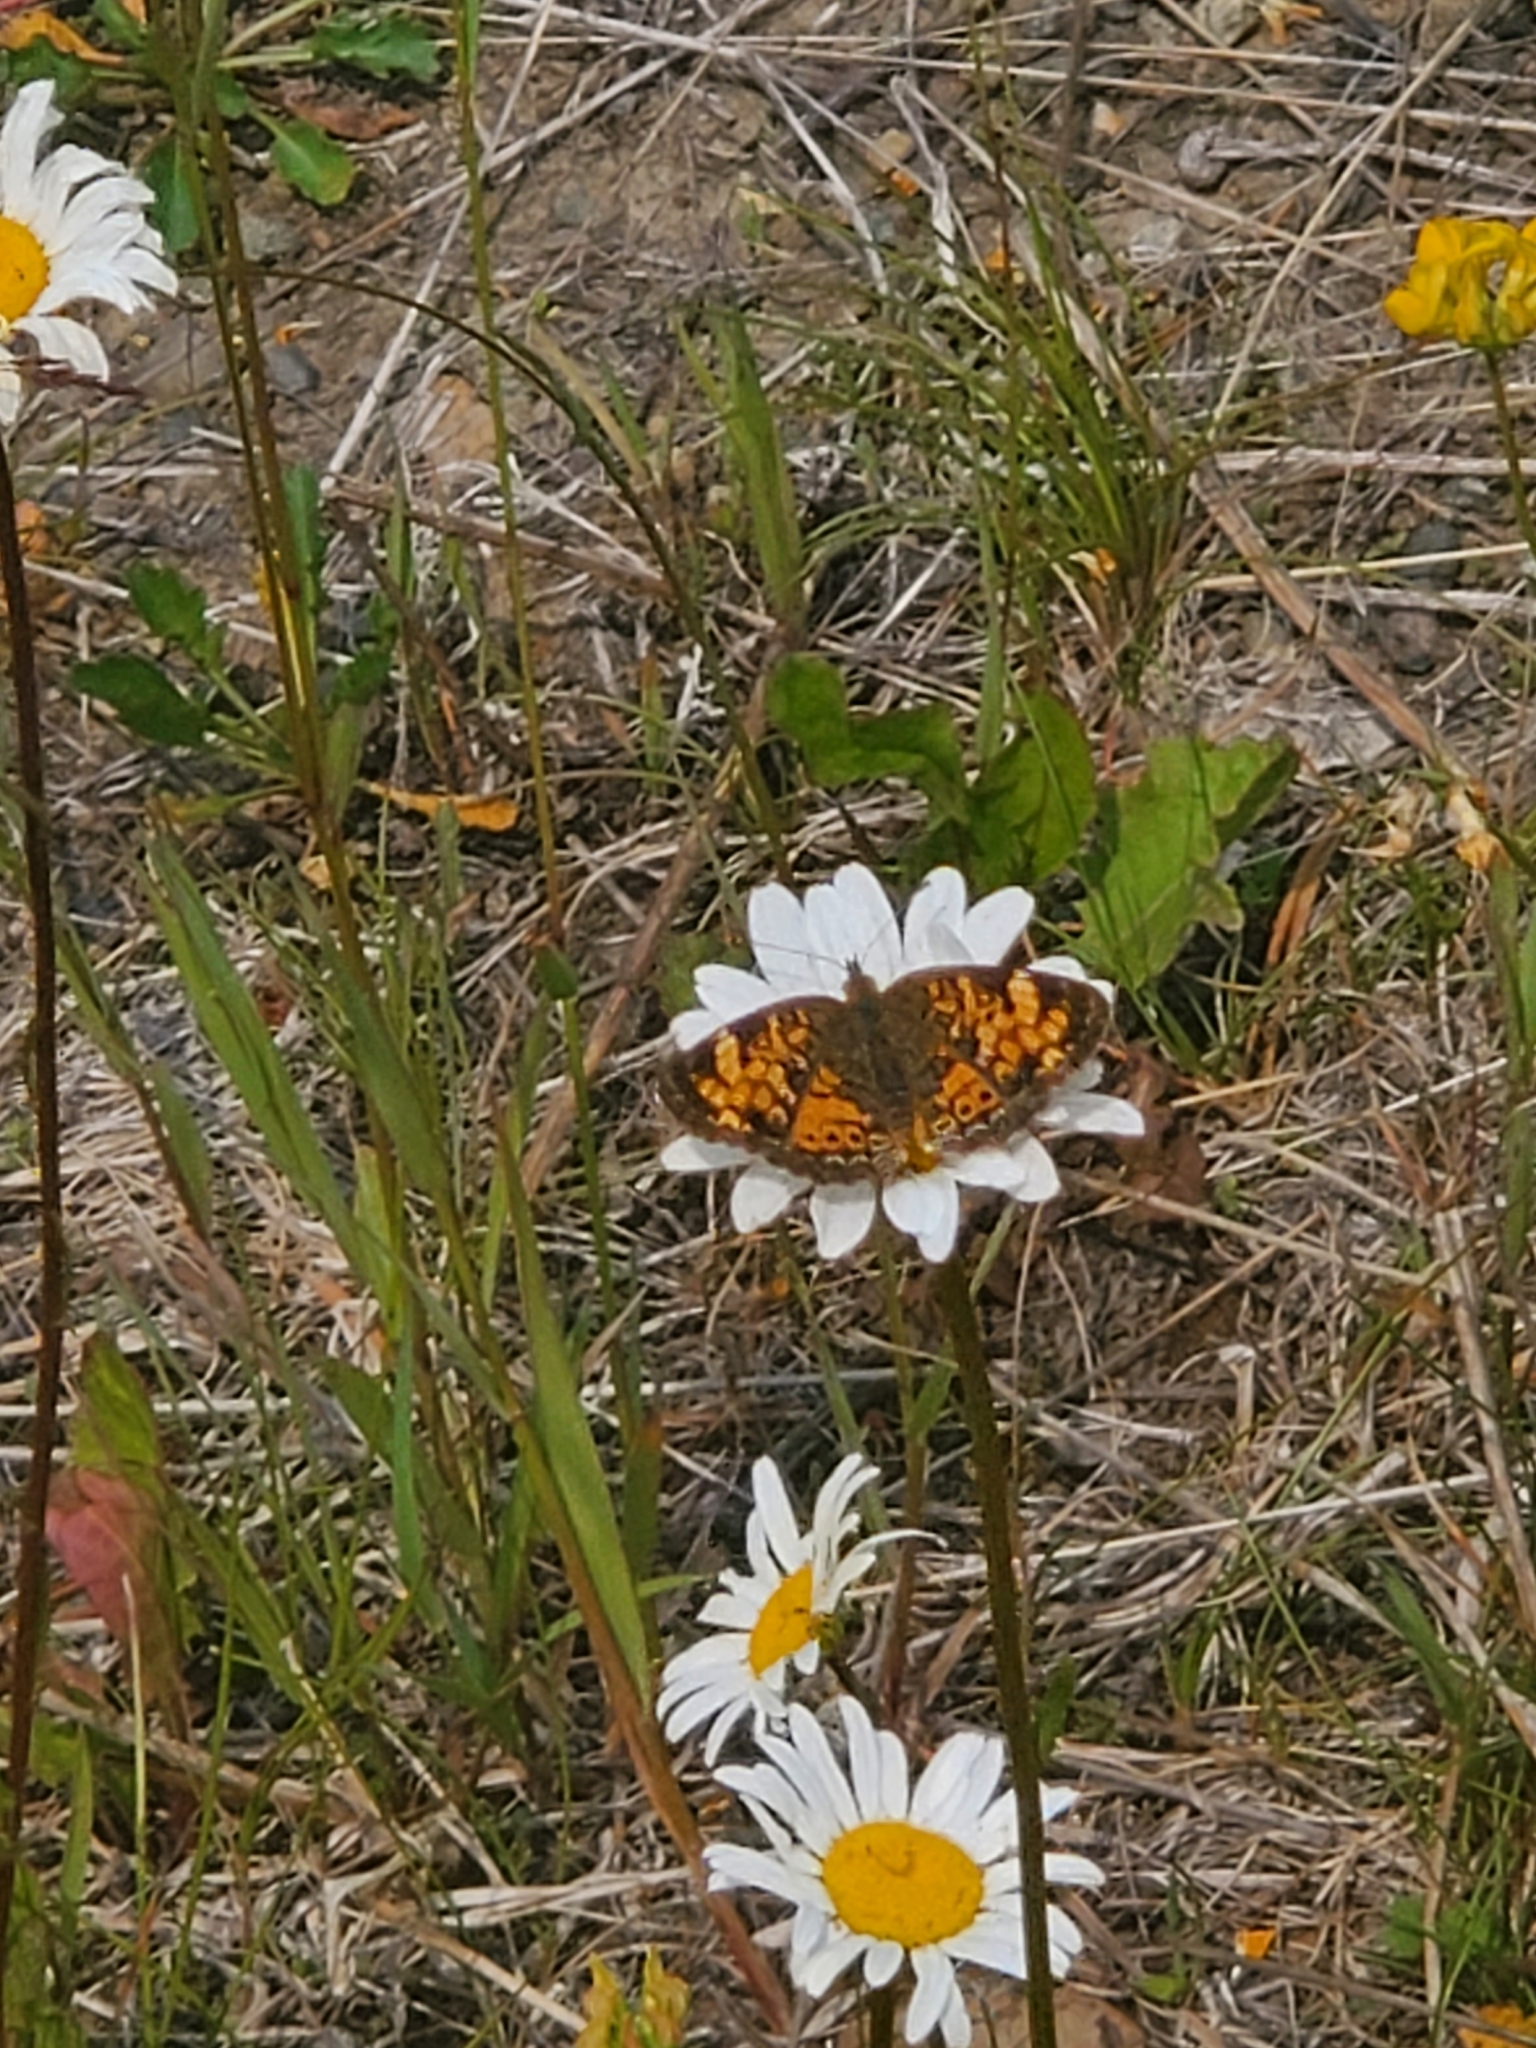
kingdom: Animalia
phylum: Arthropoda
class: Insecta
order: Lepidoptera
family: Nymphalidae
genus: Phyciodes
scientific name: Phyciodes tharos
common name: Pearl crescent
